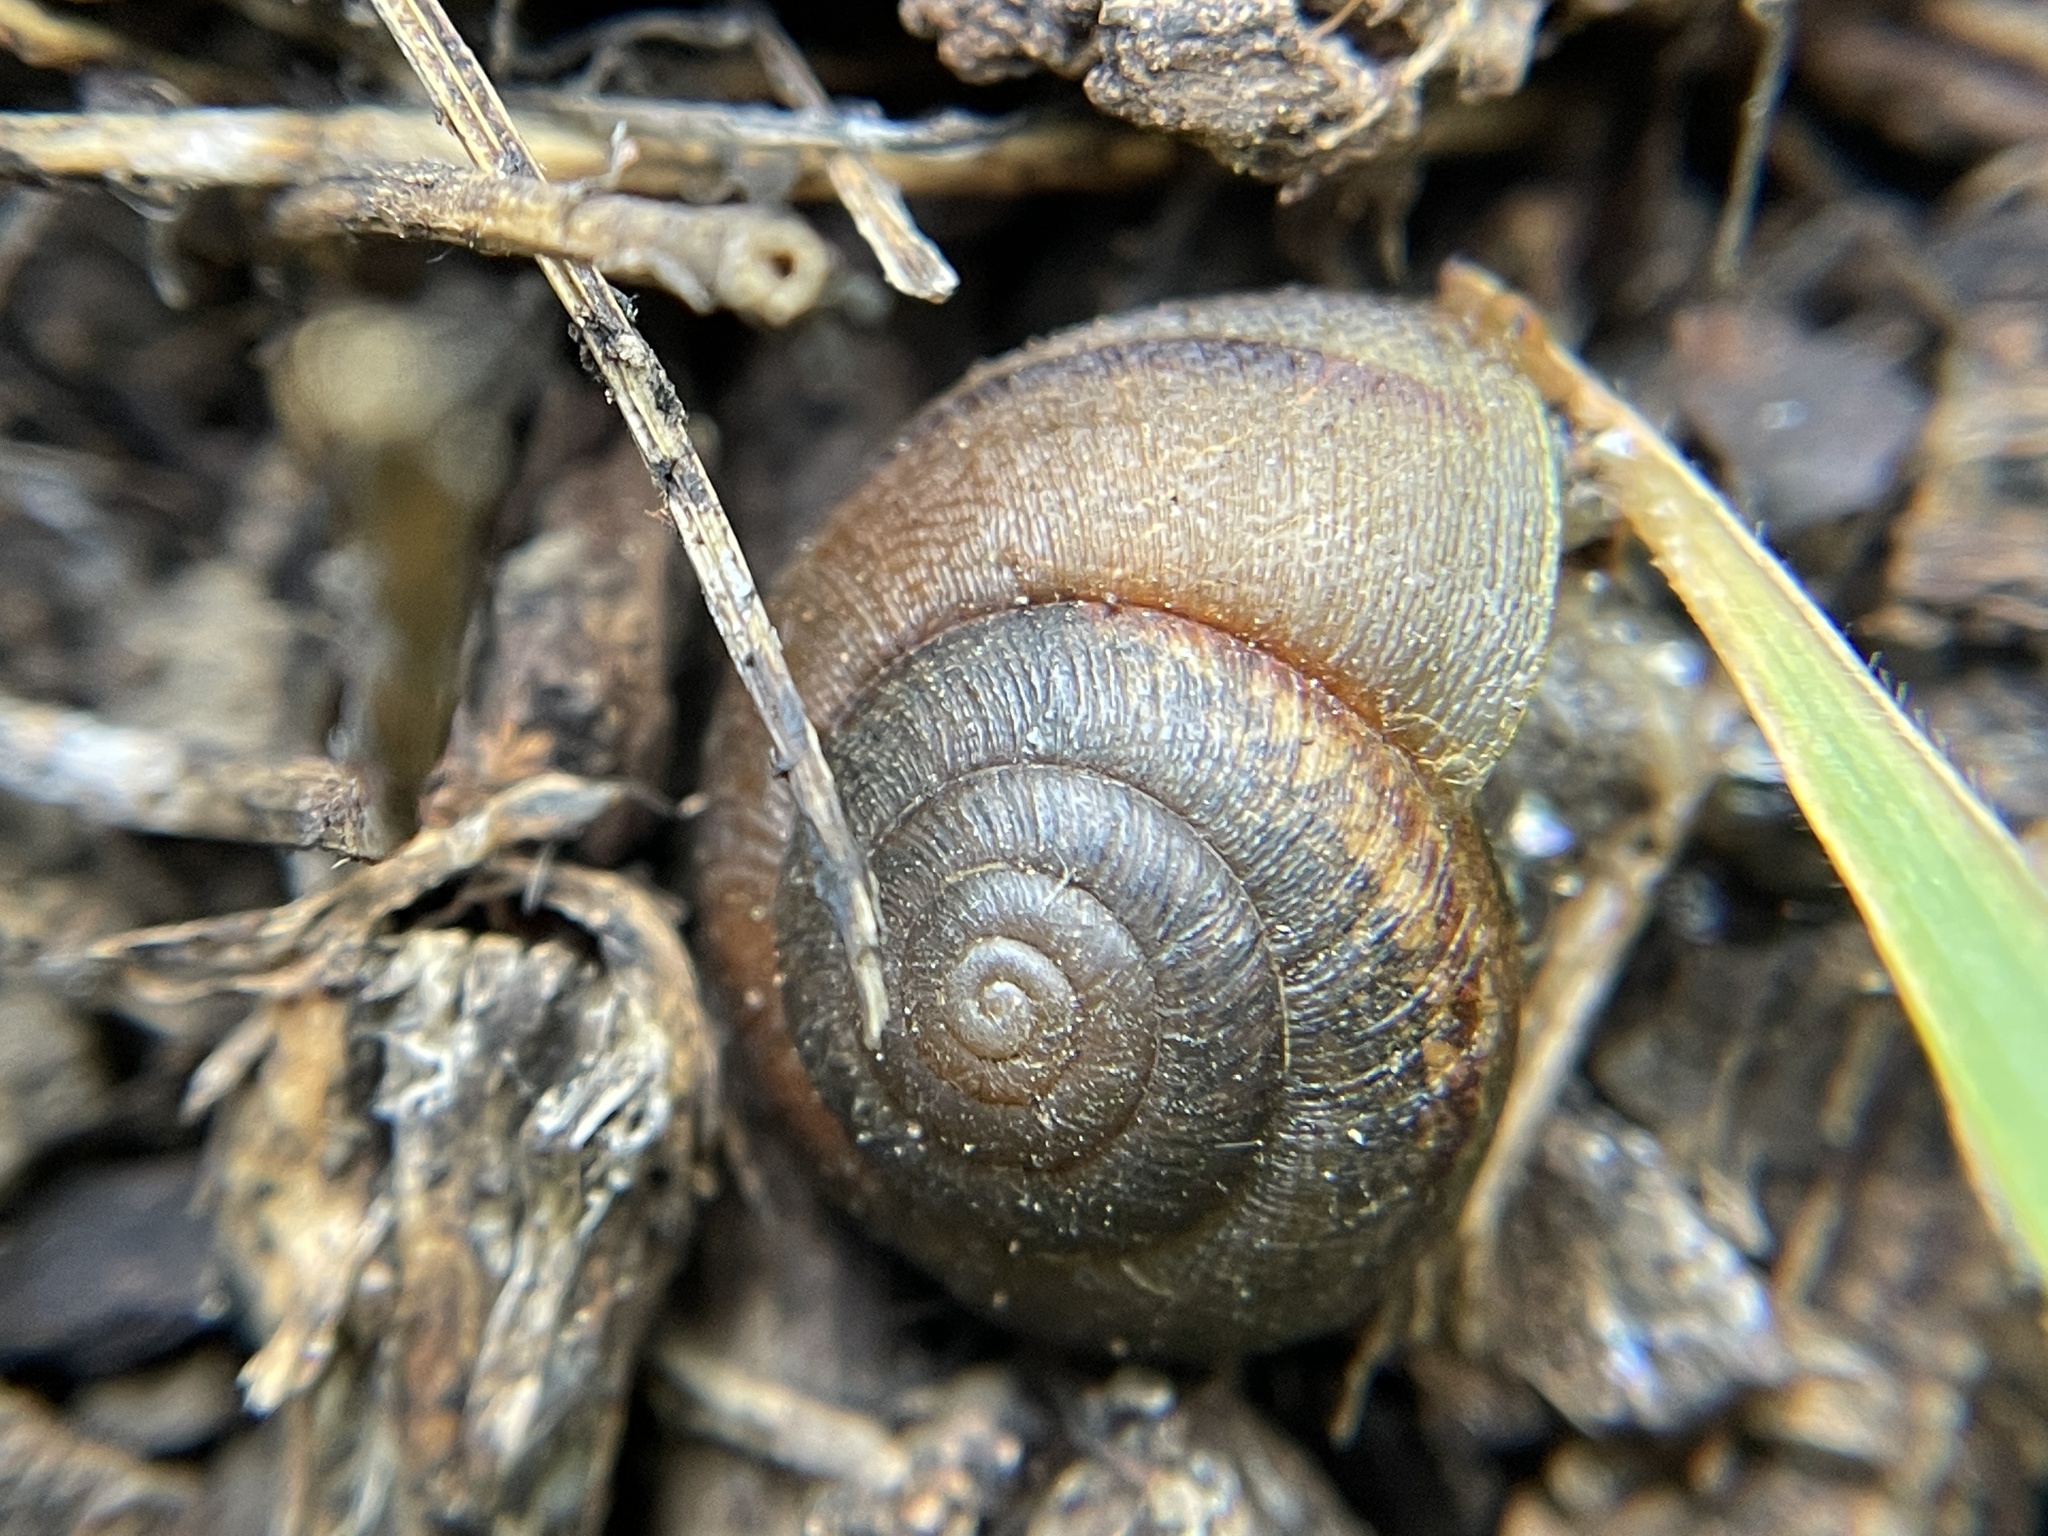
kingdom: Animalia
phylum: Mollusca
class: Gastropoda
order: Stylommatophora
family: Xanthonychidae
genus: Helminthoglypta
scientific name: Helminthoglypta nickliniana
